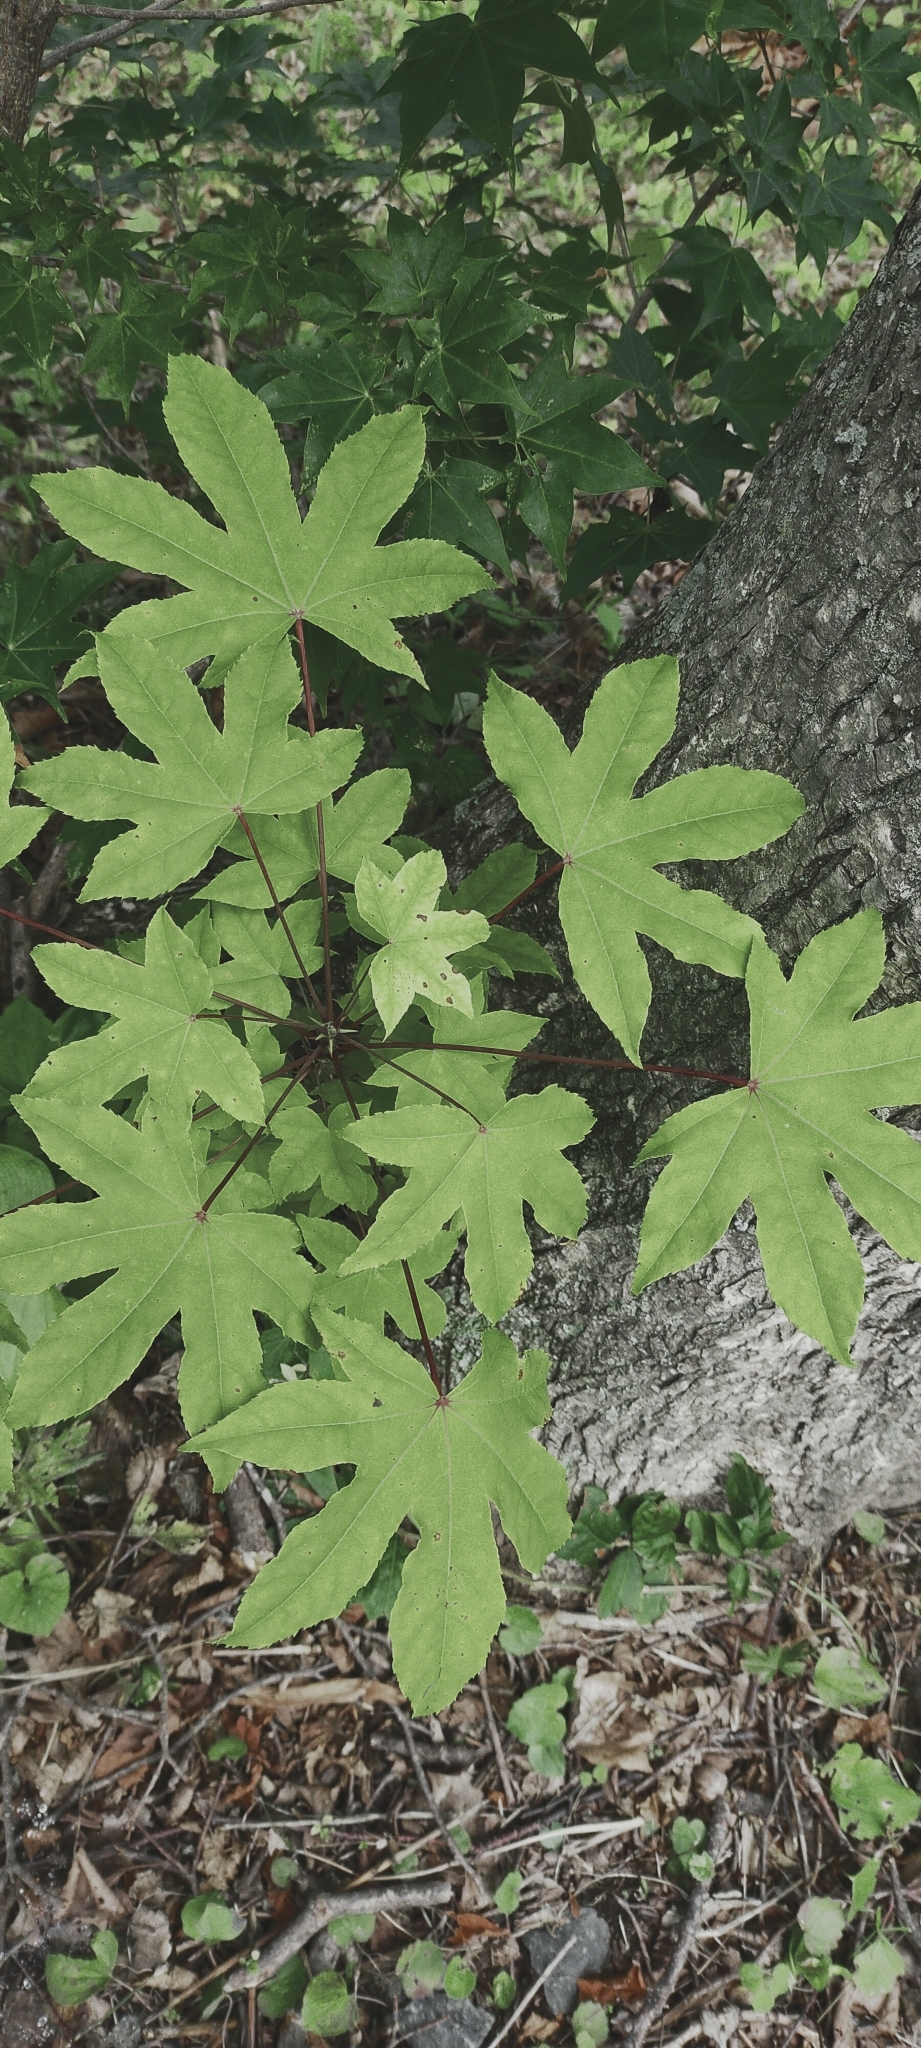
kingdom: Plantae
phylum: Tracheophyta
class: Magnoliopsida
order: Apiales
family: Araliaceae
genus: Kalopanax
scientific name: Kalopanax septemlobus
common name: Castor aralia
